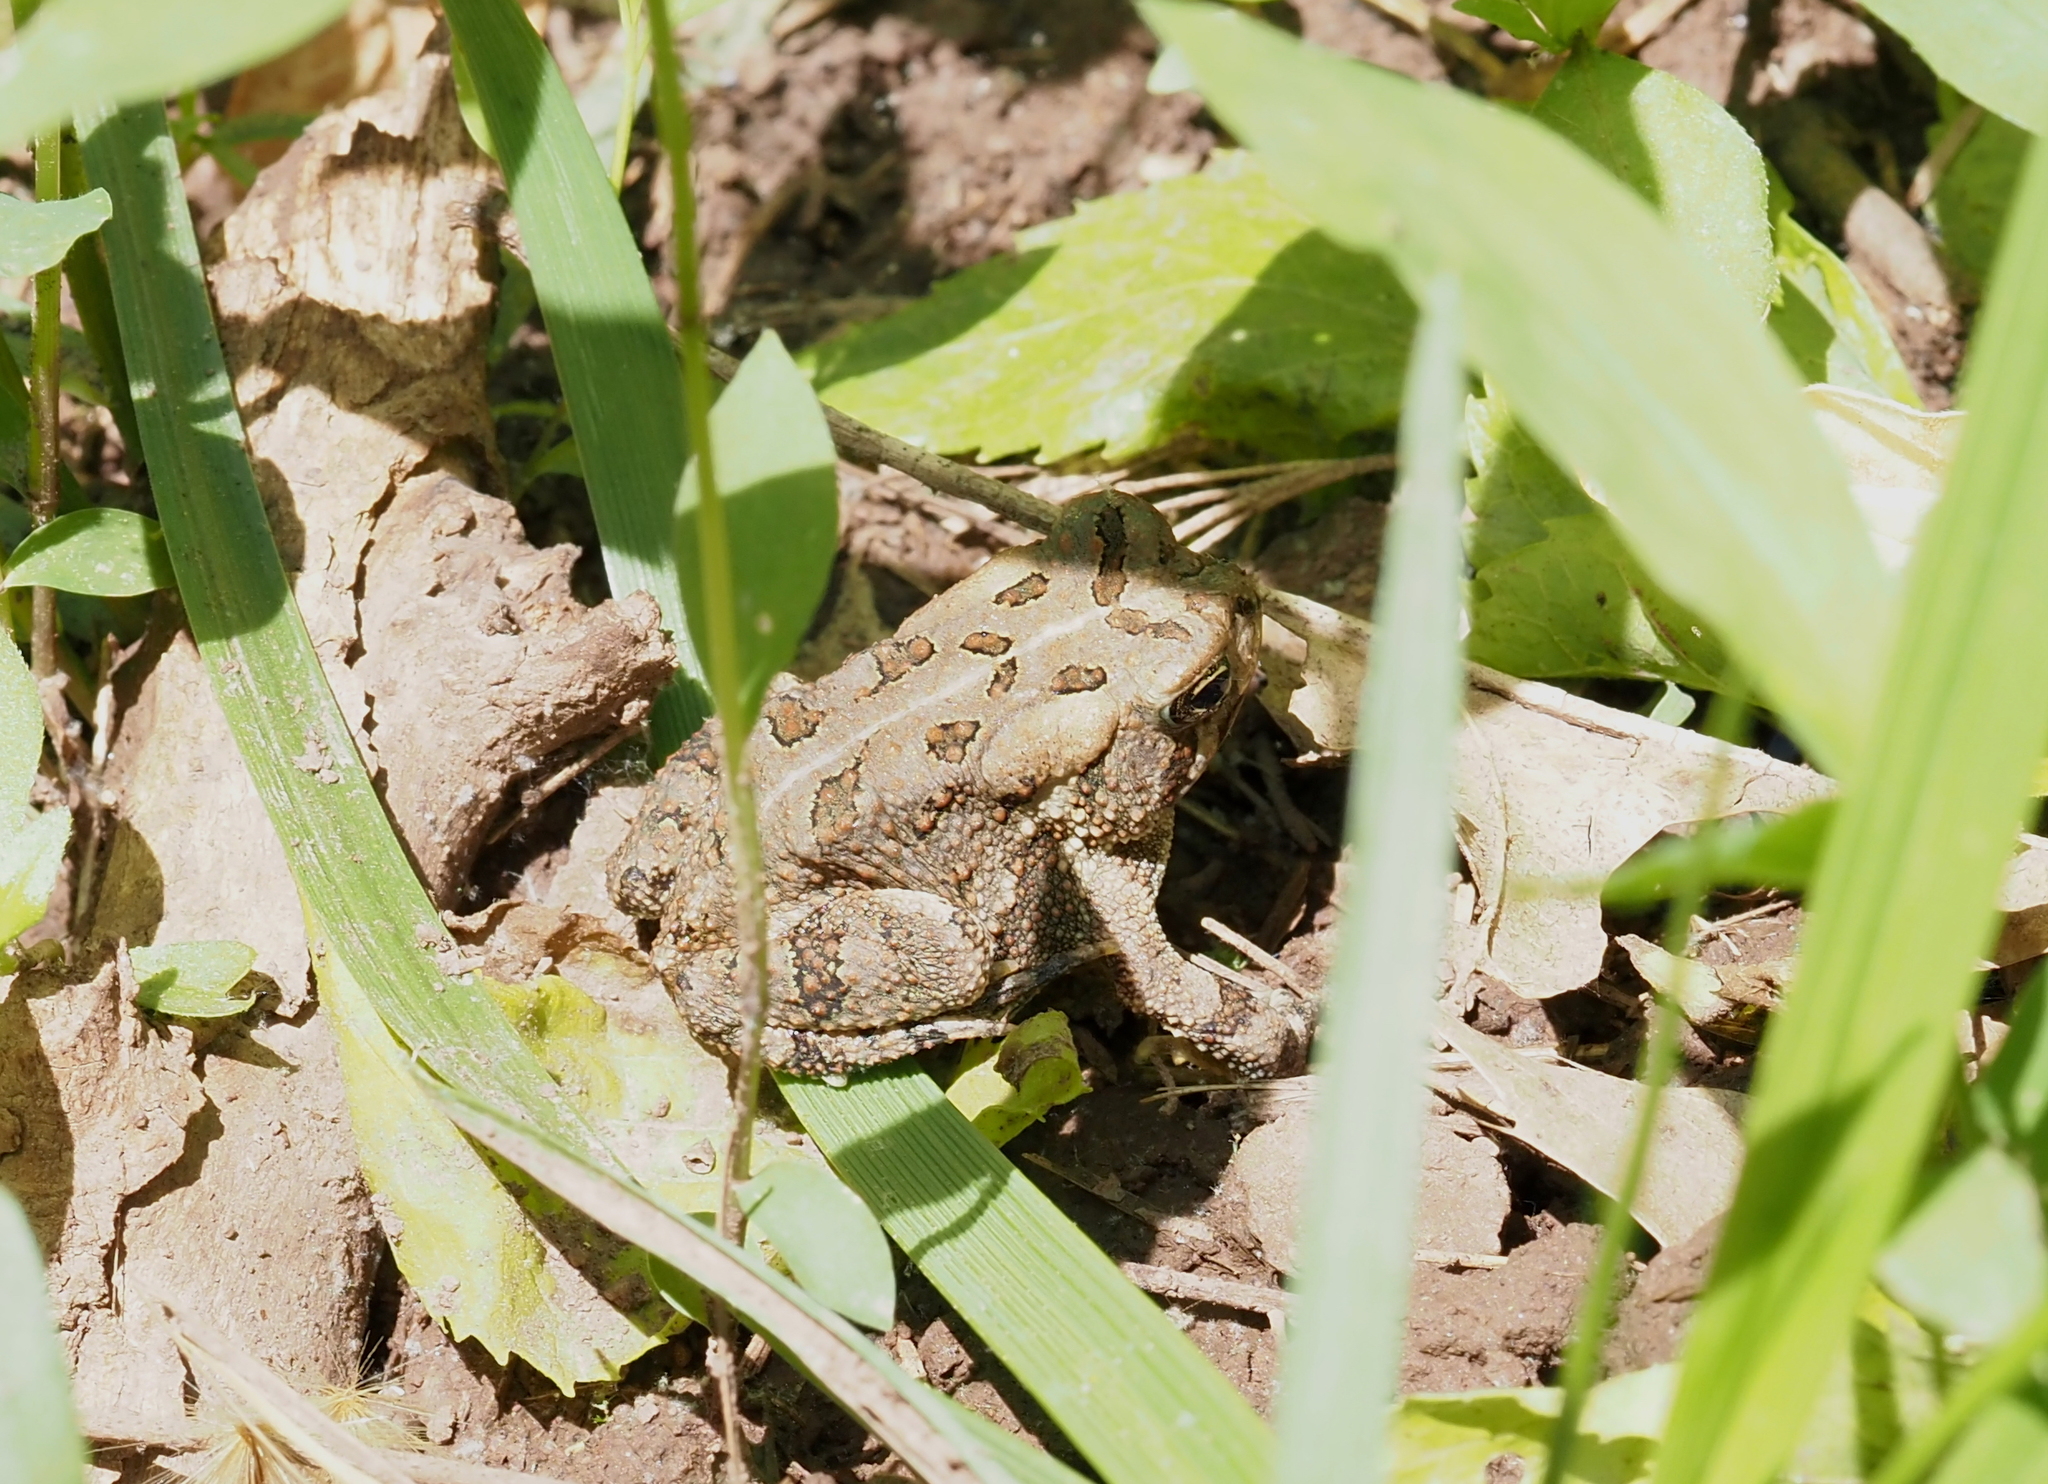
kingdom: Animalia
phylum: Chordata
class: Amphibia
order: Anura
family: Bufonidae
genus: Anaxyrus
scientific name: Anaxyrus fowleri
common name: Fowler's toad
